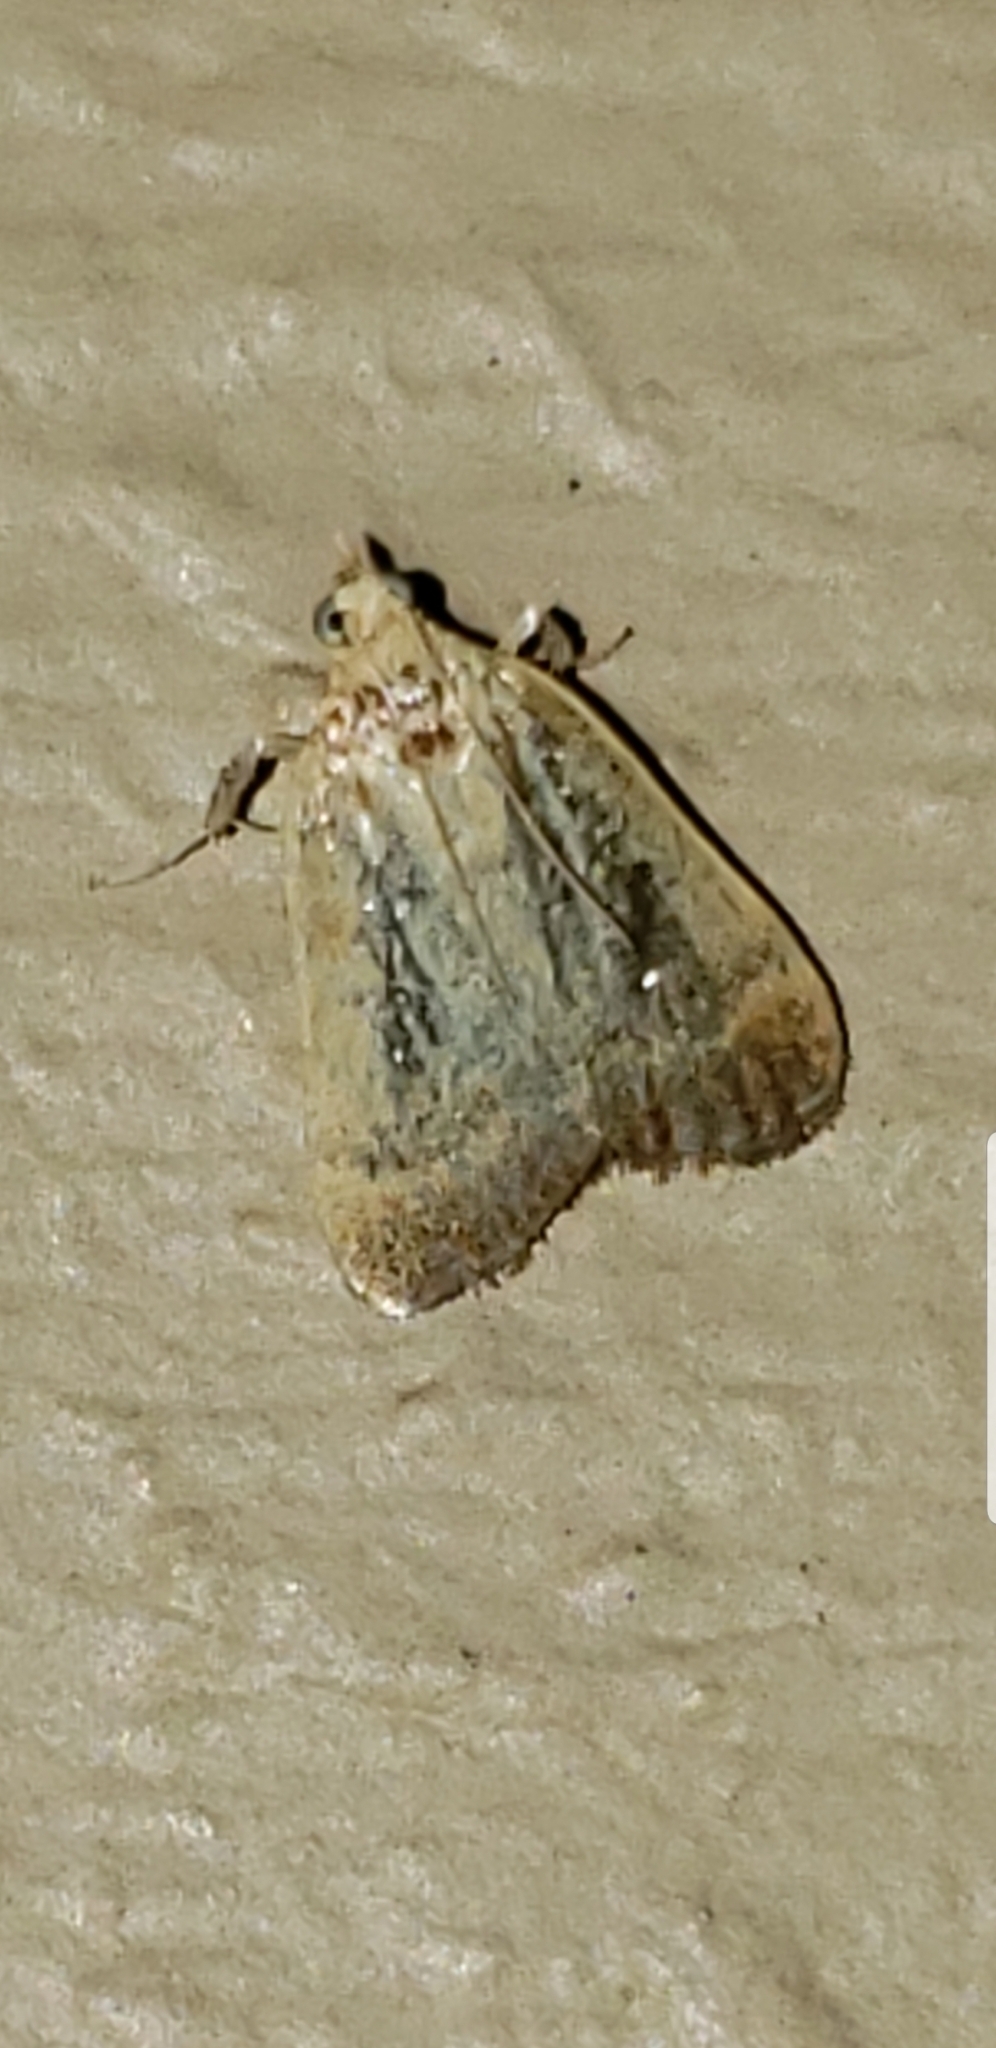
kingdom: Animalia
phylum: Arthropoda
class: Insecta
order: Lepidoptera
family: Pyralidae
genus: Condylolomia
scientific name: Condylolomia participialis
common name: Drab condylolomia moth
